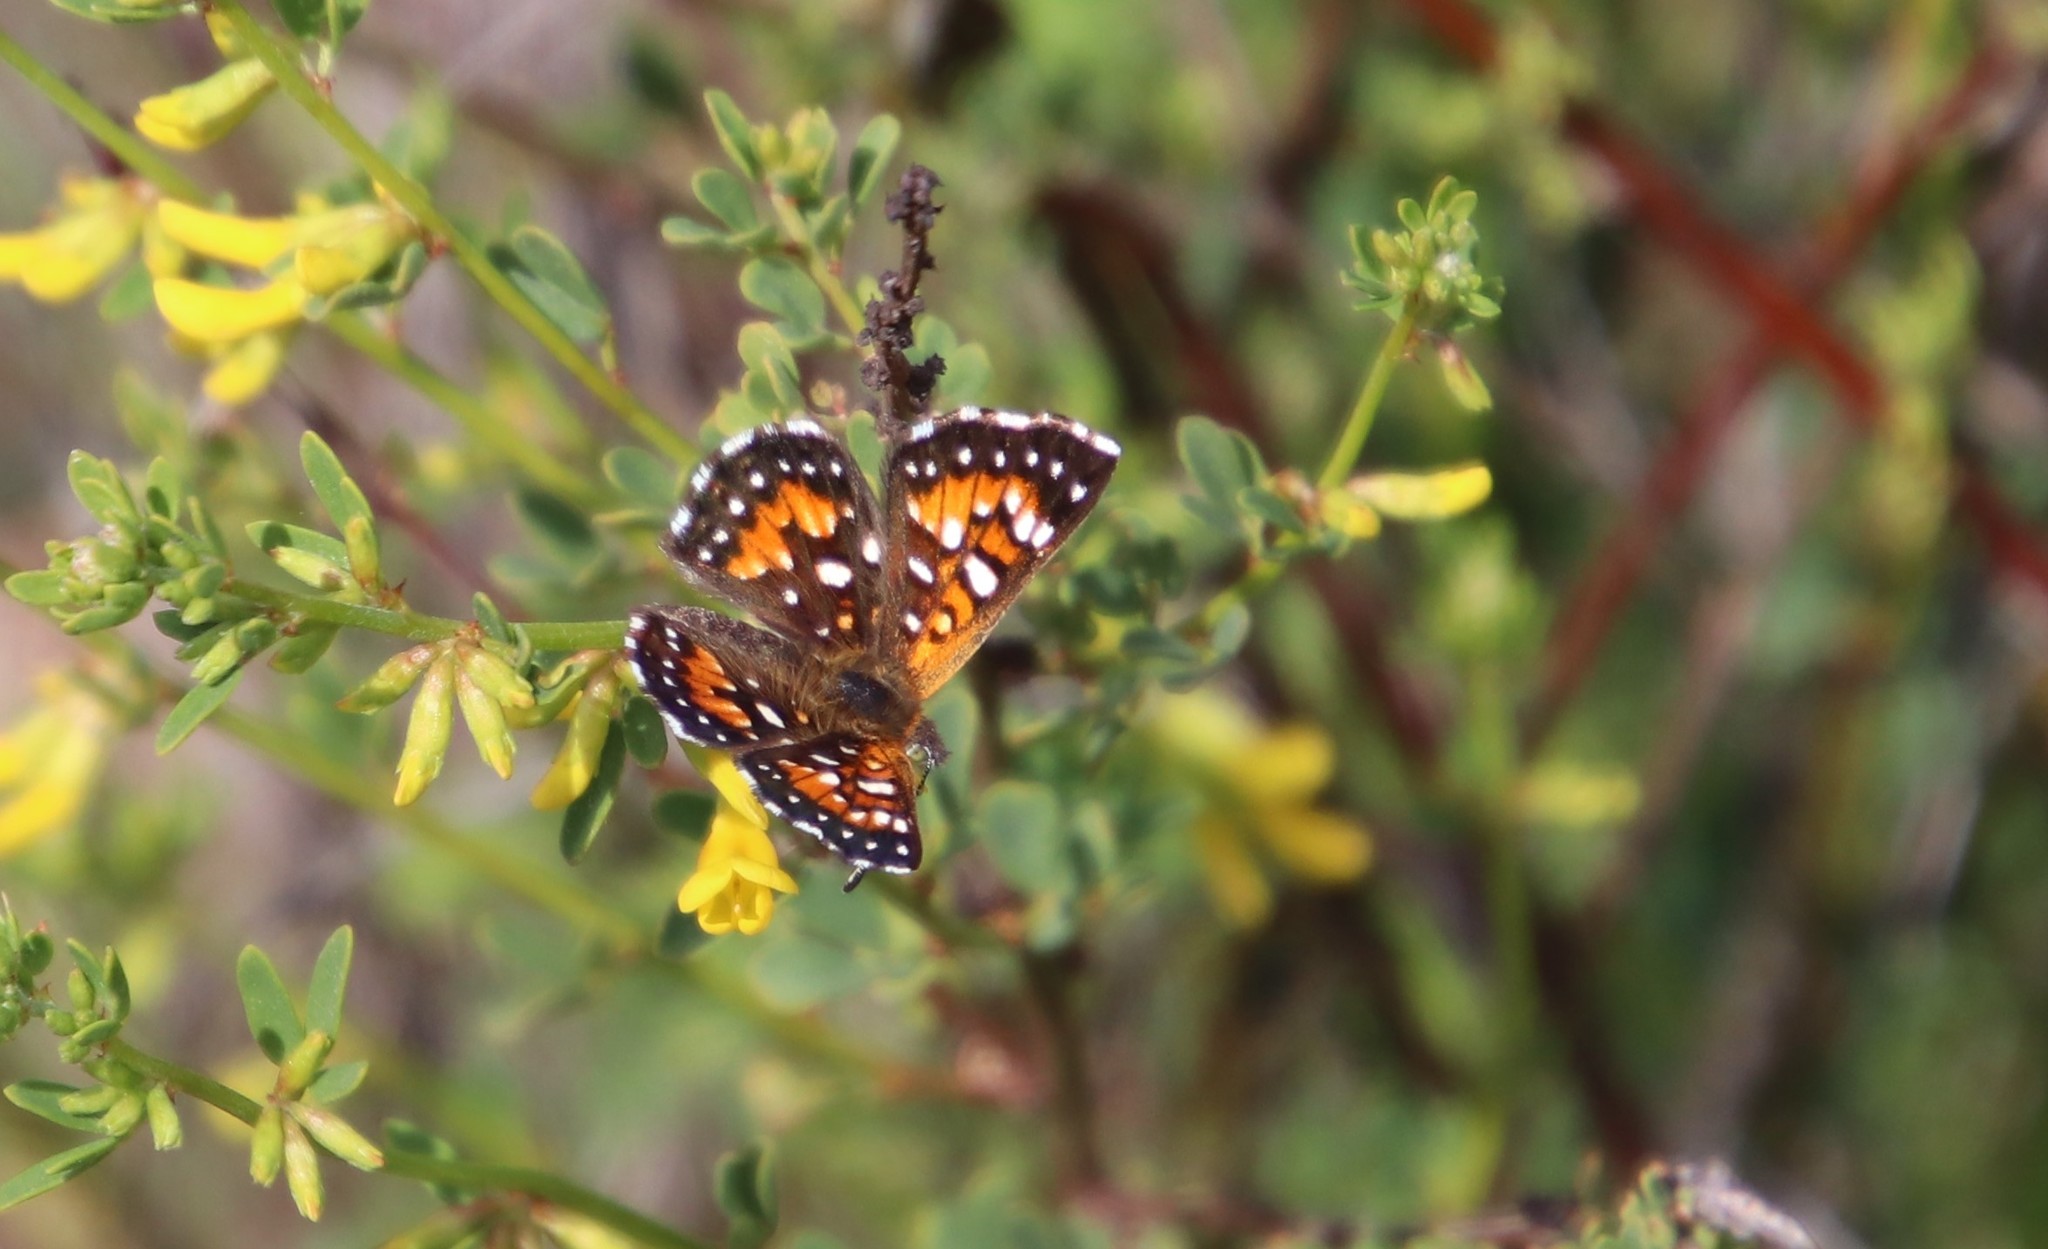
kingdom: Animalia
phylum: Arthropoda
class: Insecta
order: Lepidoptera
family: Riodinidae
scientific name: Riodinidae
